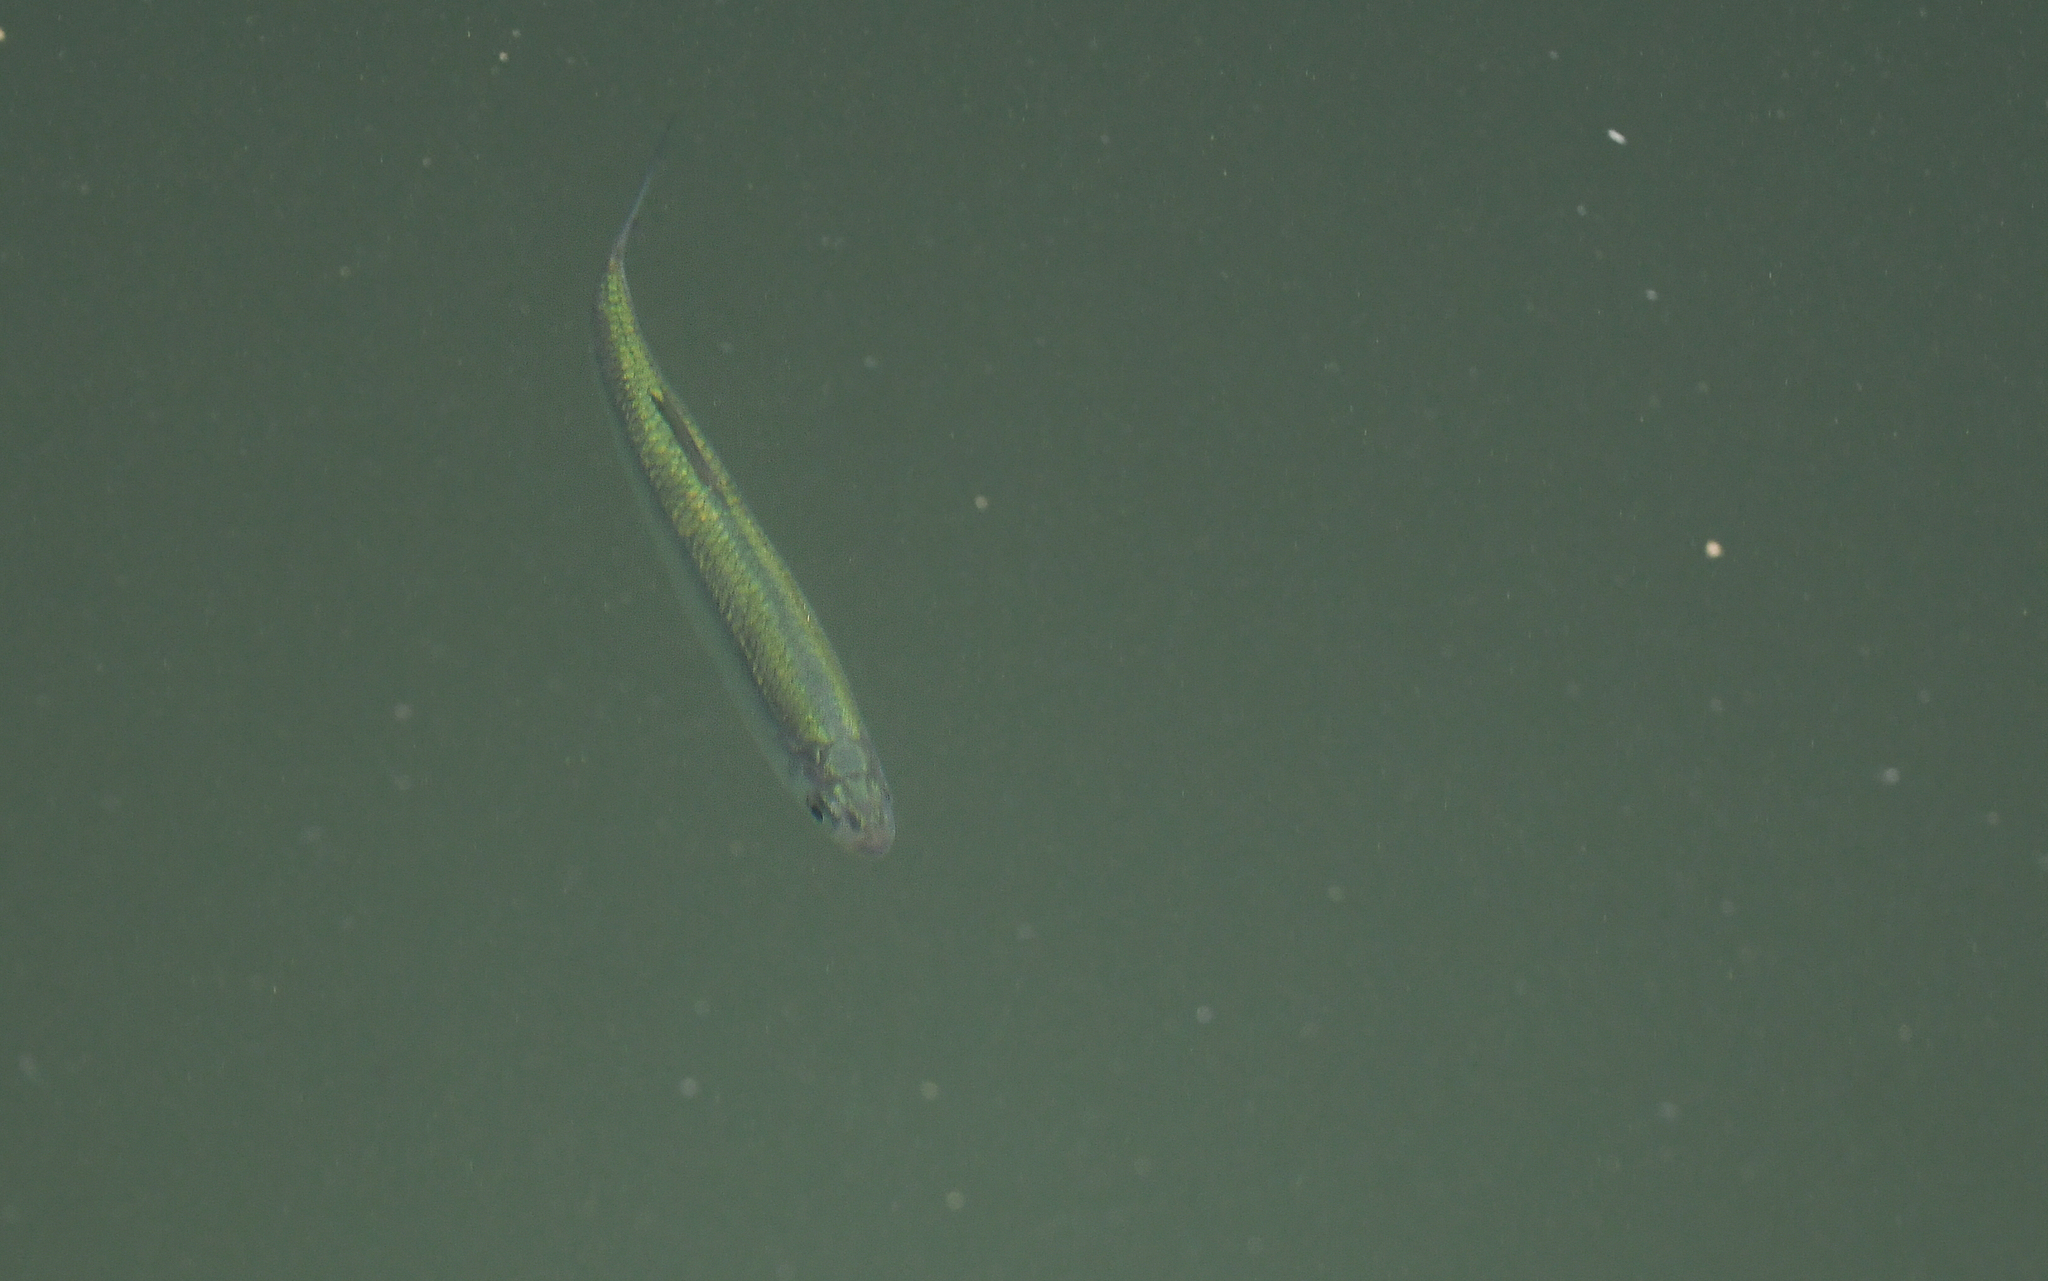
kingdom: Animalia
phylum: Chordata
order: Cypriniformes
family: Cyprinidae
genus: Alburnus
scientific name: Alburnus alburnus
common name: Bleak
